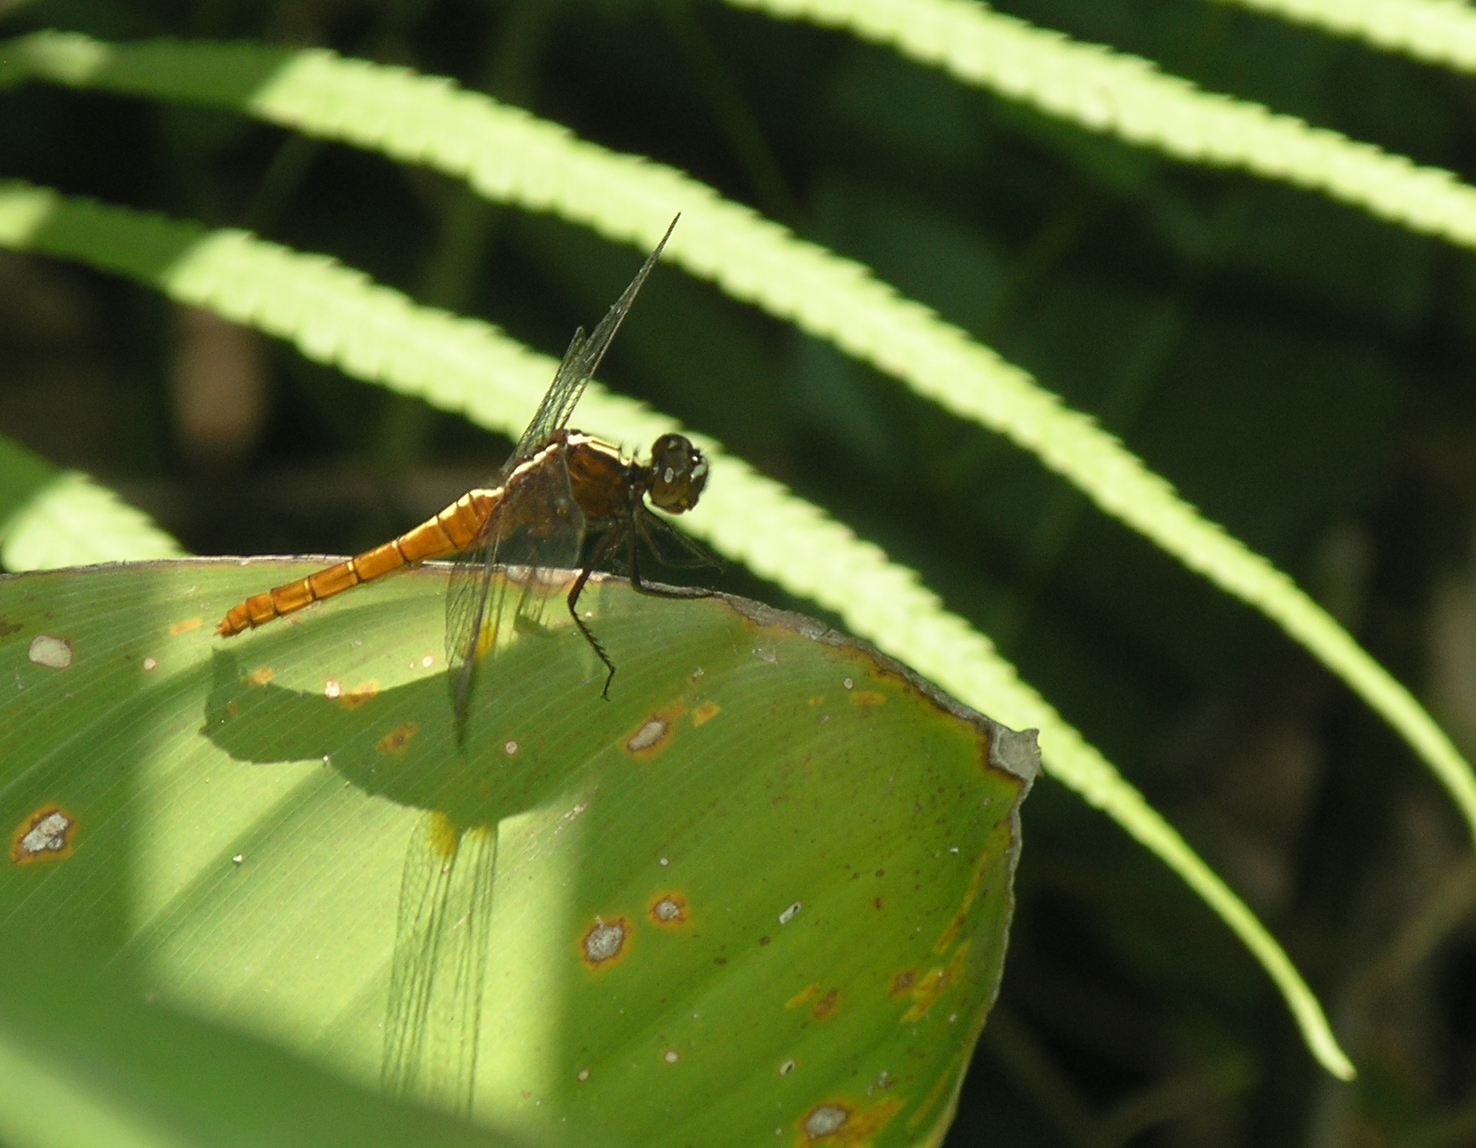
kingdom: Animalia
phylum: Arthropoda
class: Insecta
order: Odonata
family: Libellulidae
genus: Rhodothemis
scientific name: Rhodothemis rufa
